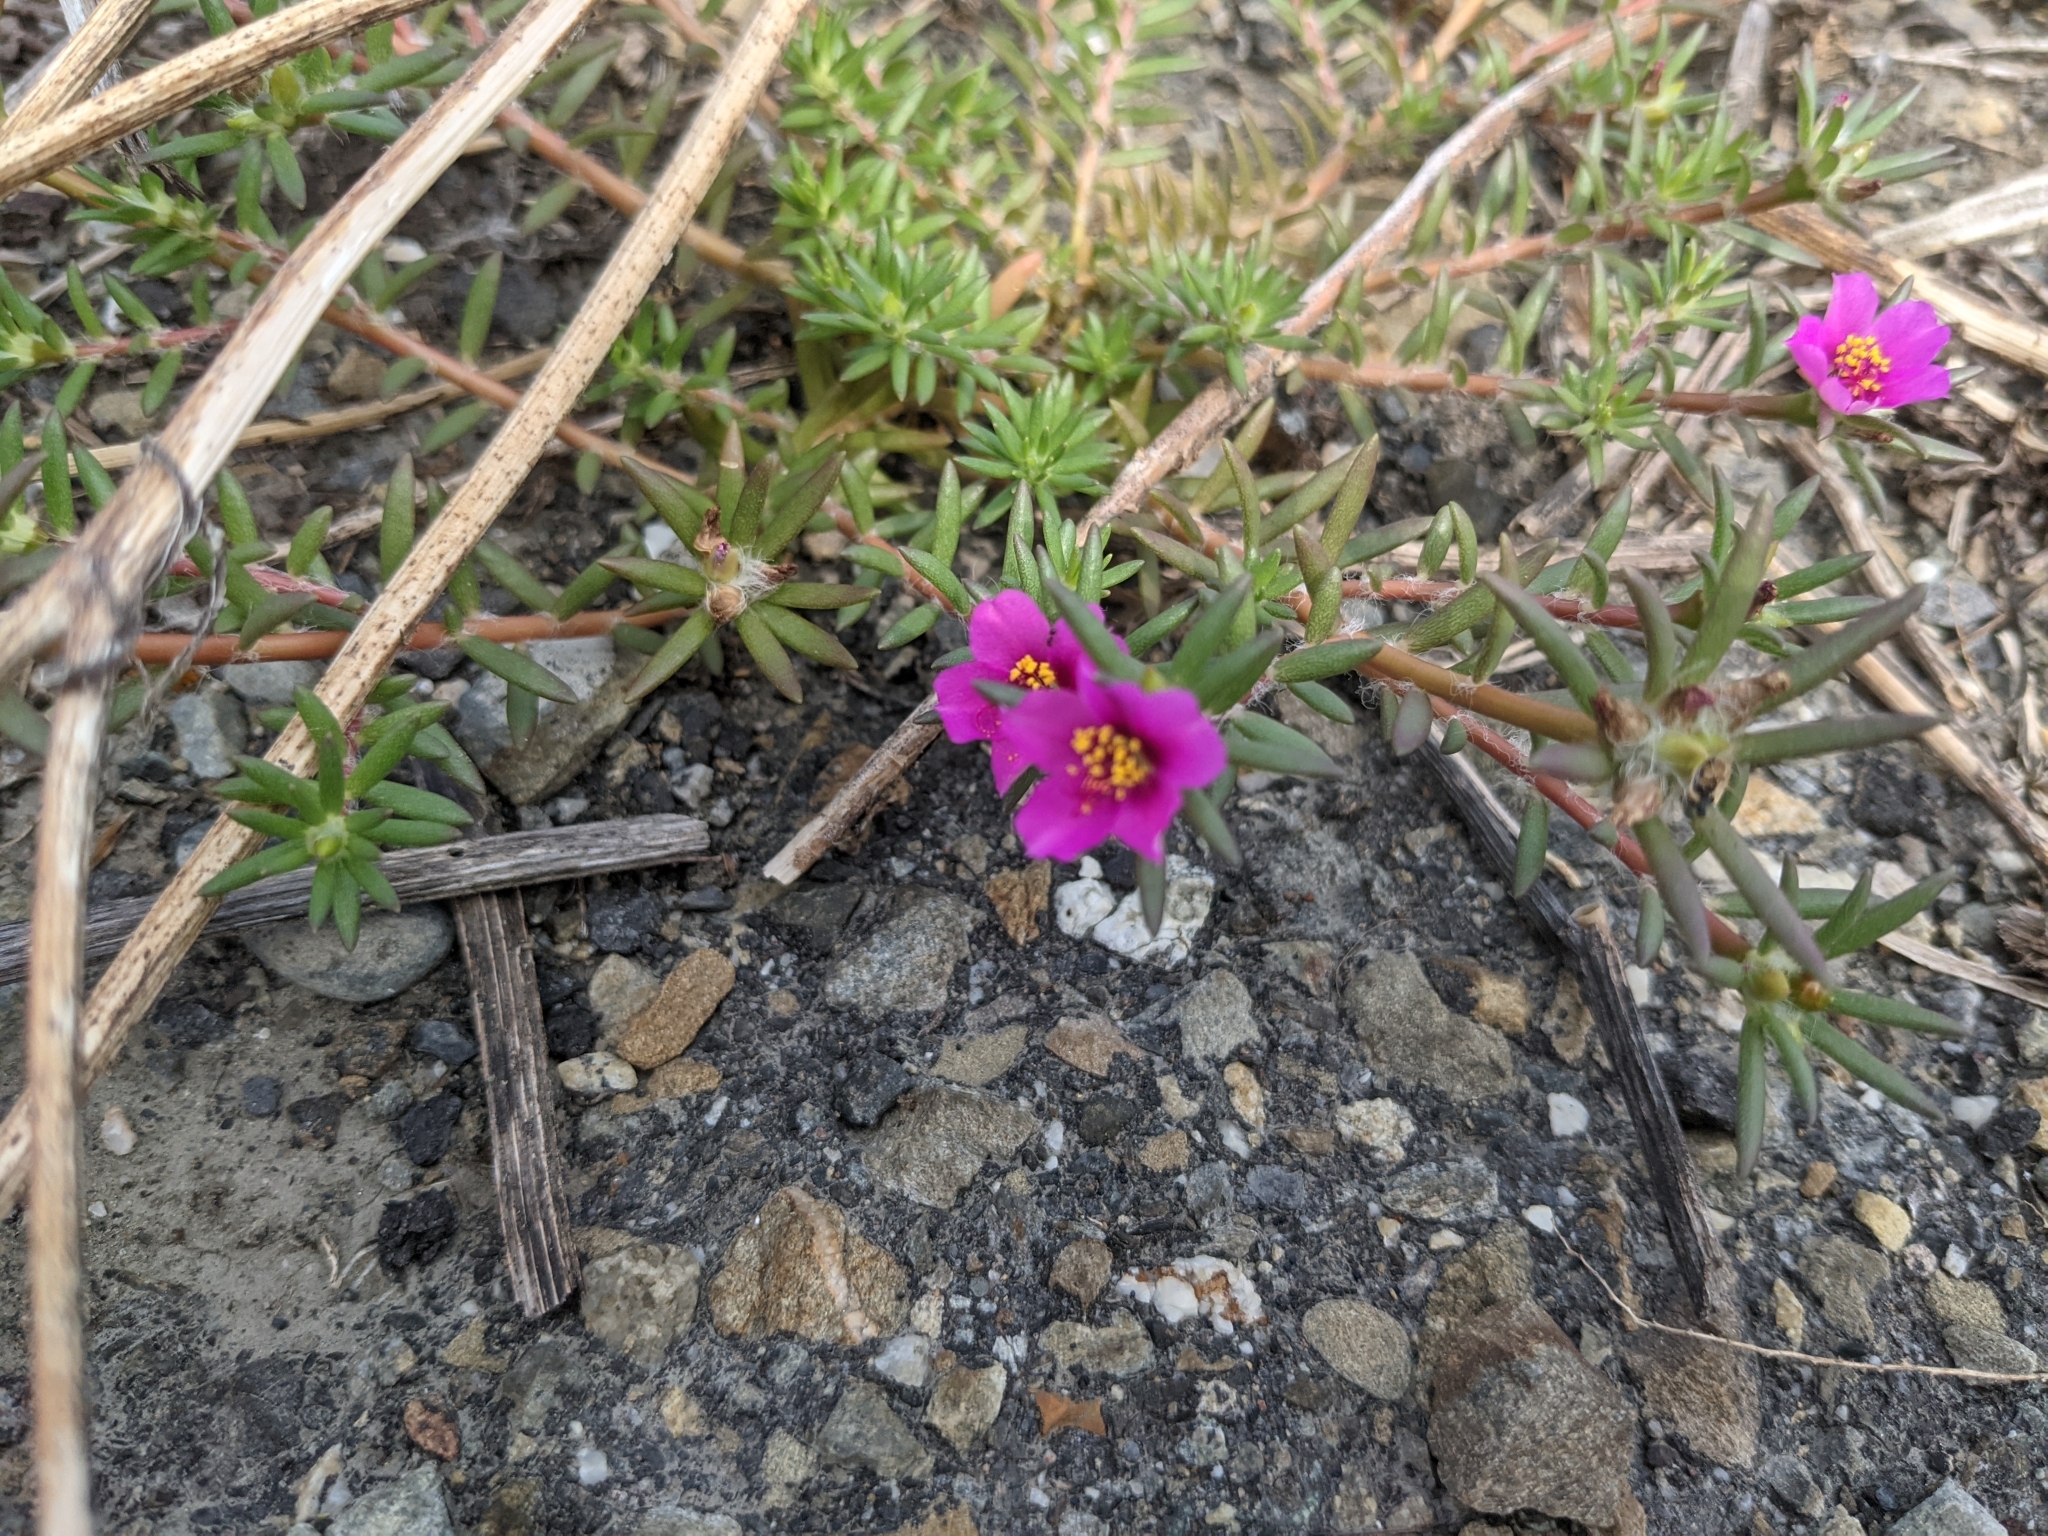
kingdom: Plantae
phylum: Tracheophyta
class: Magnoliopsida
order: Caryophyllales
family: Portulacaceae
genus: Portulaca
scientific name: Portulaca pilosa
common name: Kiss me quick
